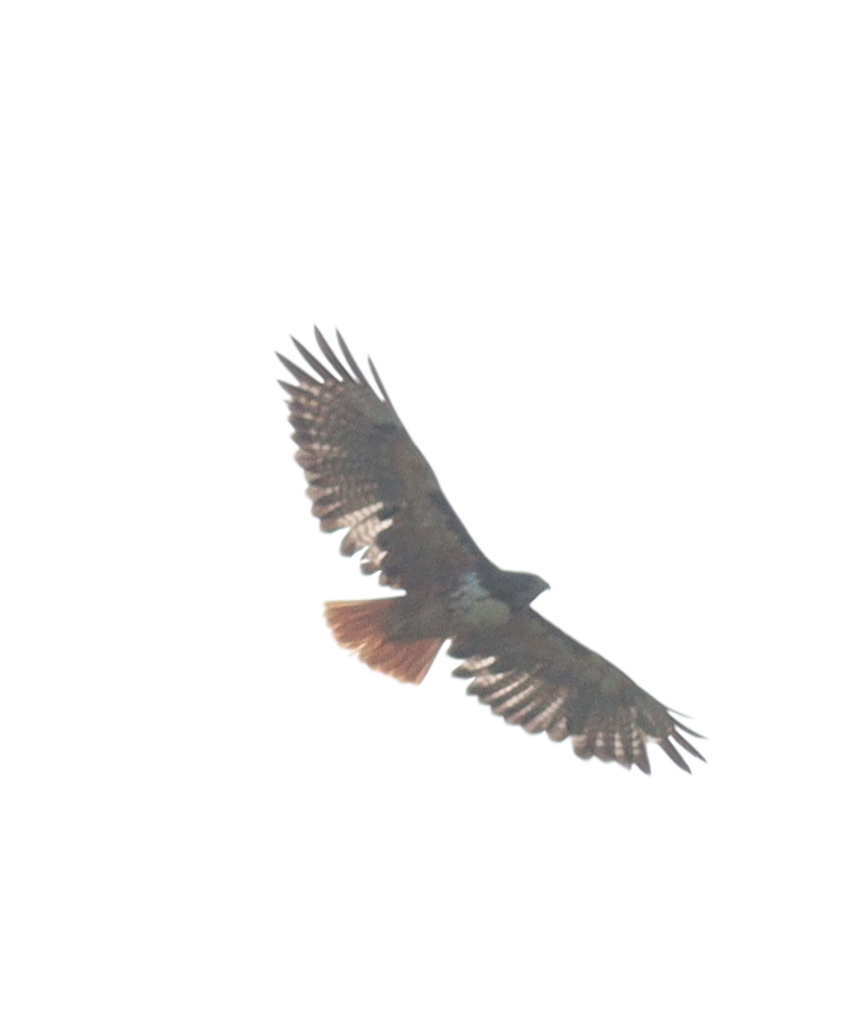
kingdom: Animalia
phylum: Chordata
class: Aves
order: Accipitriformes
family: Accipitridae
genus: Buteo
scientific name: Buteo jamaicensis
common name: Red-tailed hawk
